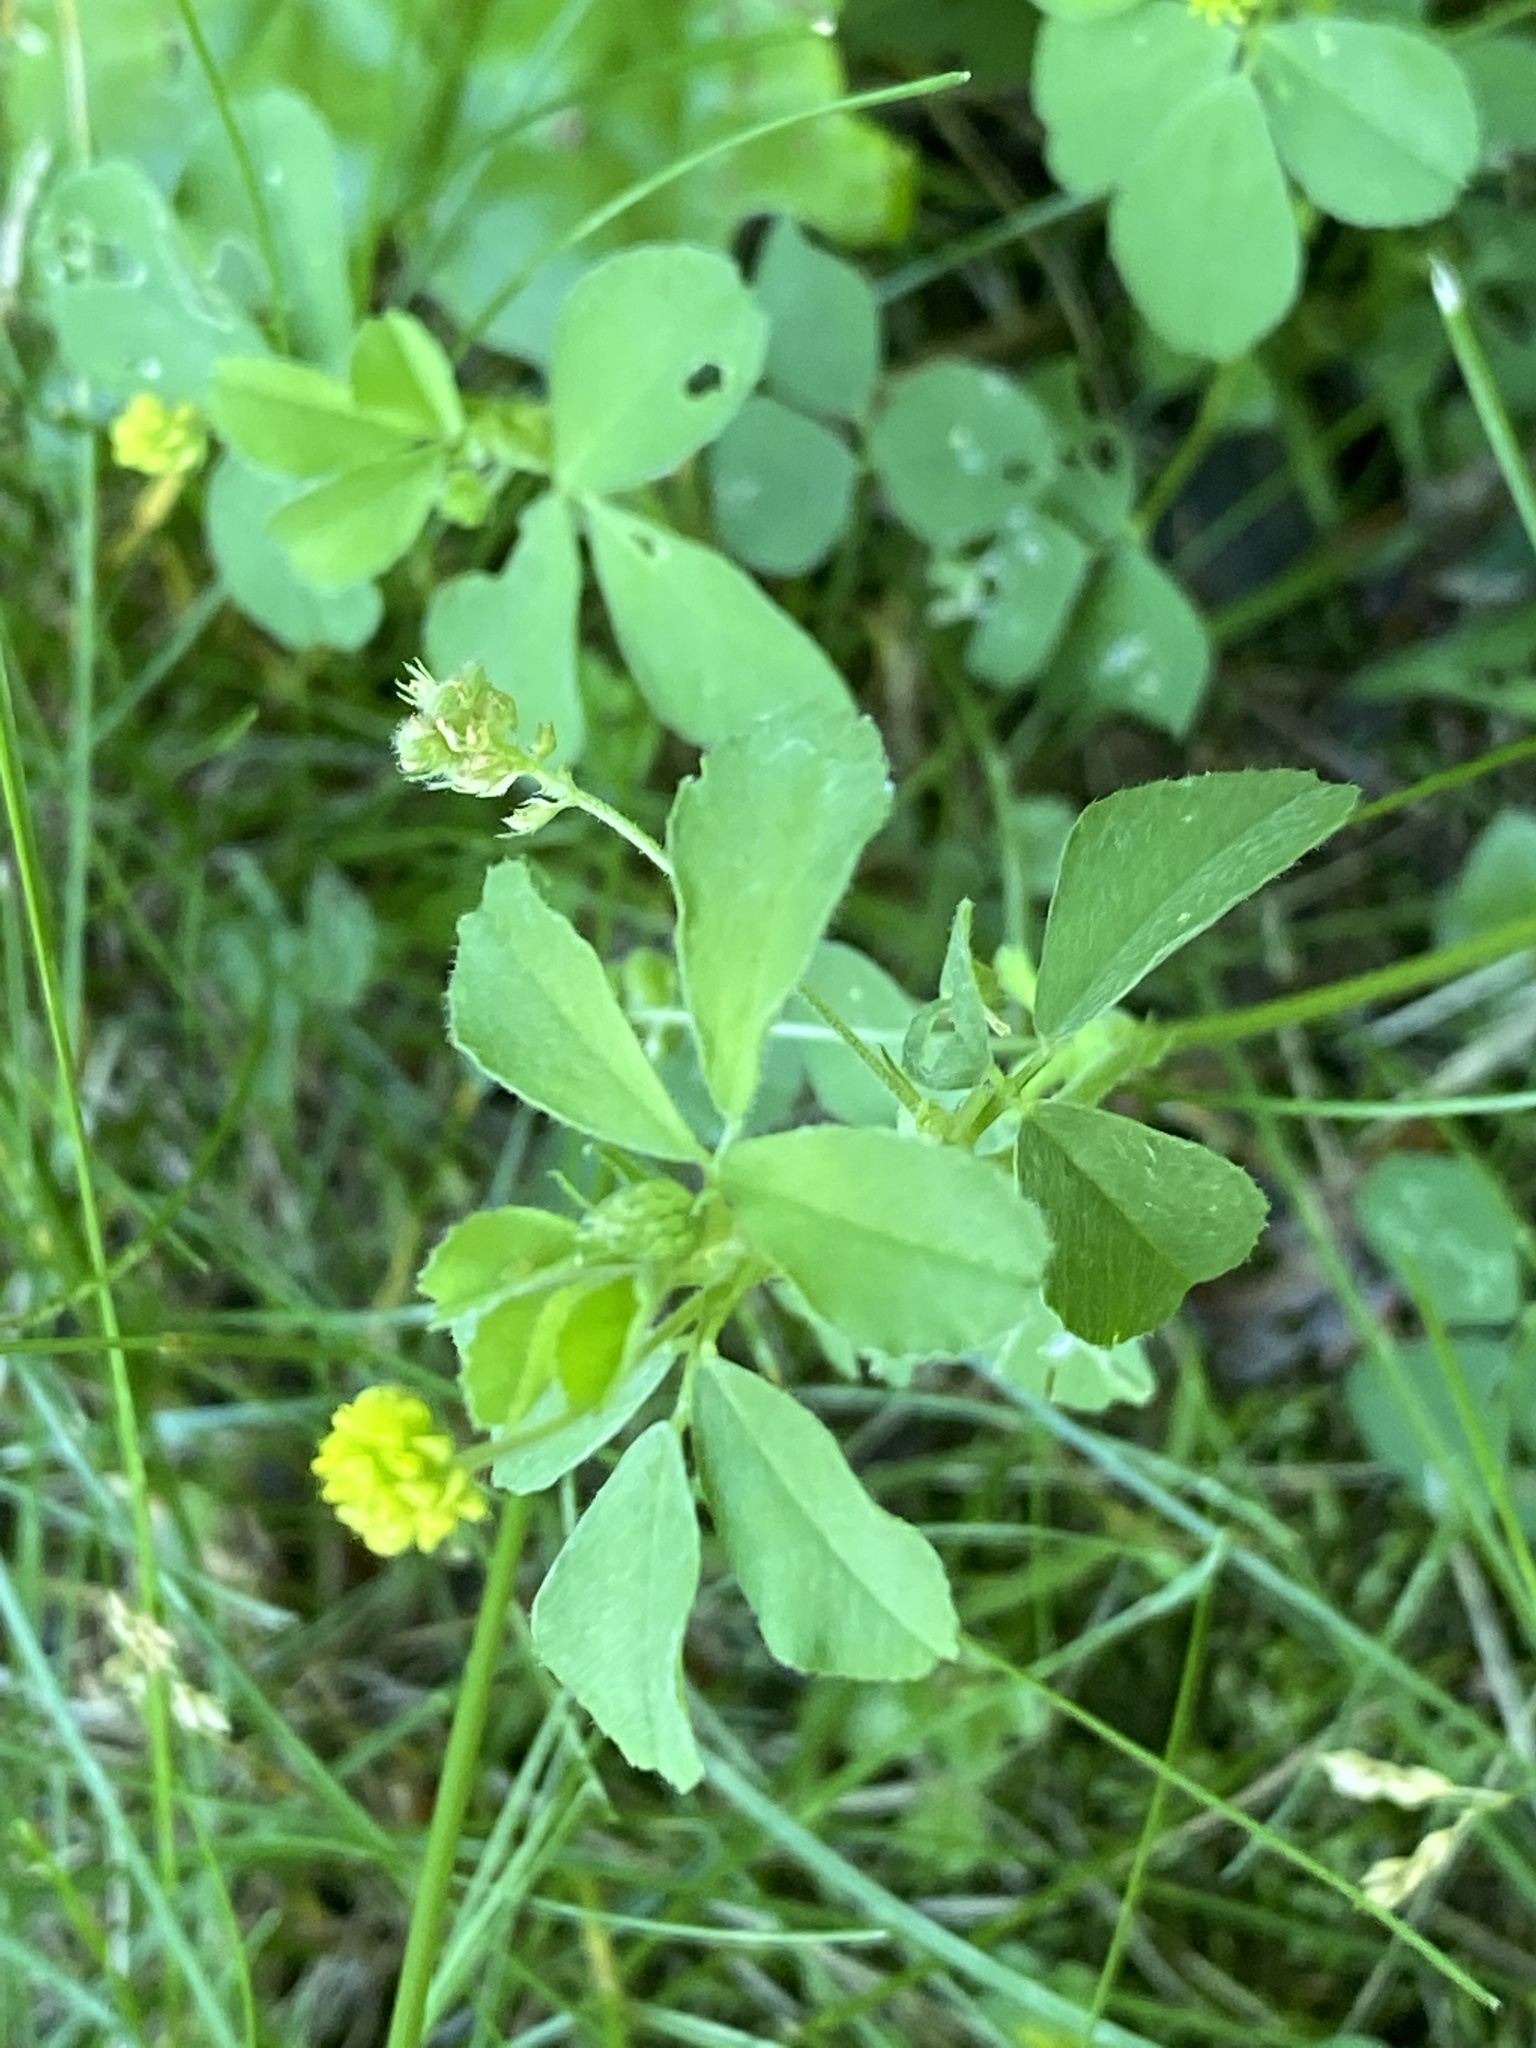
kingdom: Plantae
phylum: Tracheophyta
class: Magnoliopsida
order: Fabales
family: Fabaceae
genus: Medicago
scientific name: Medicago lupulina
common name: Black medick
